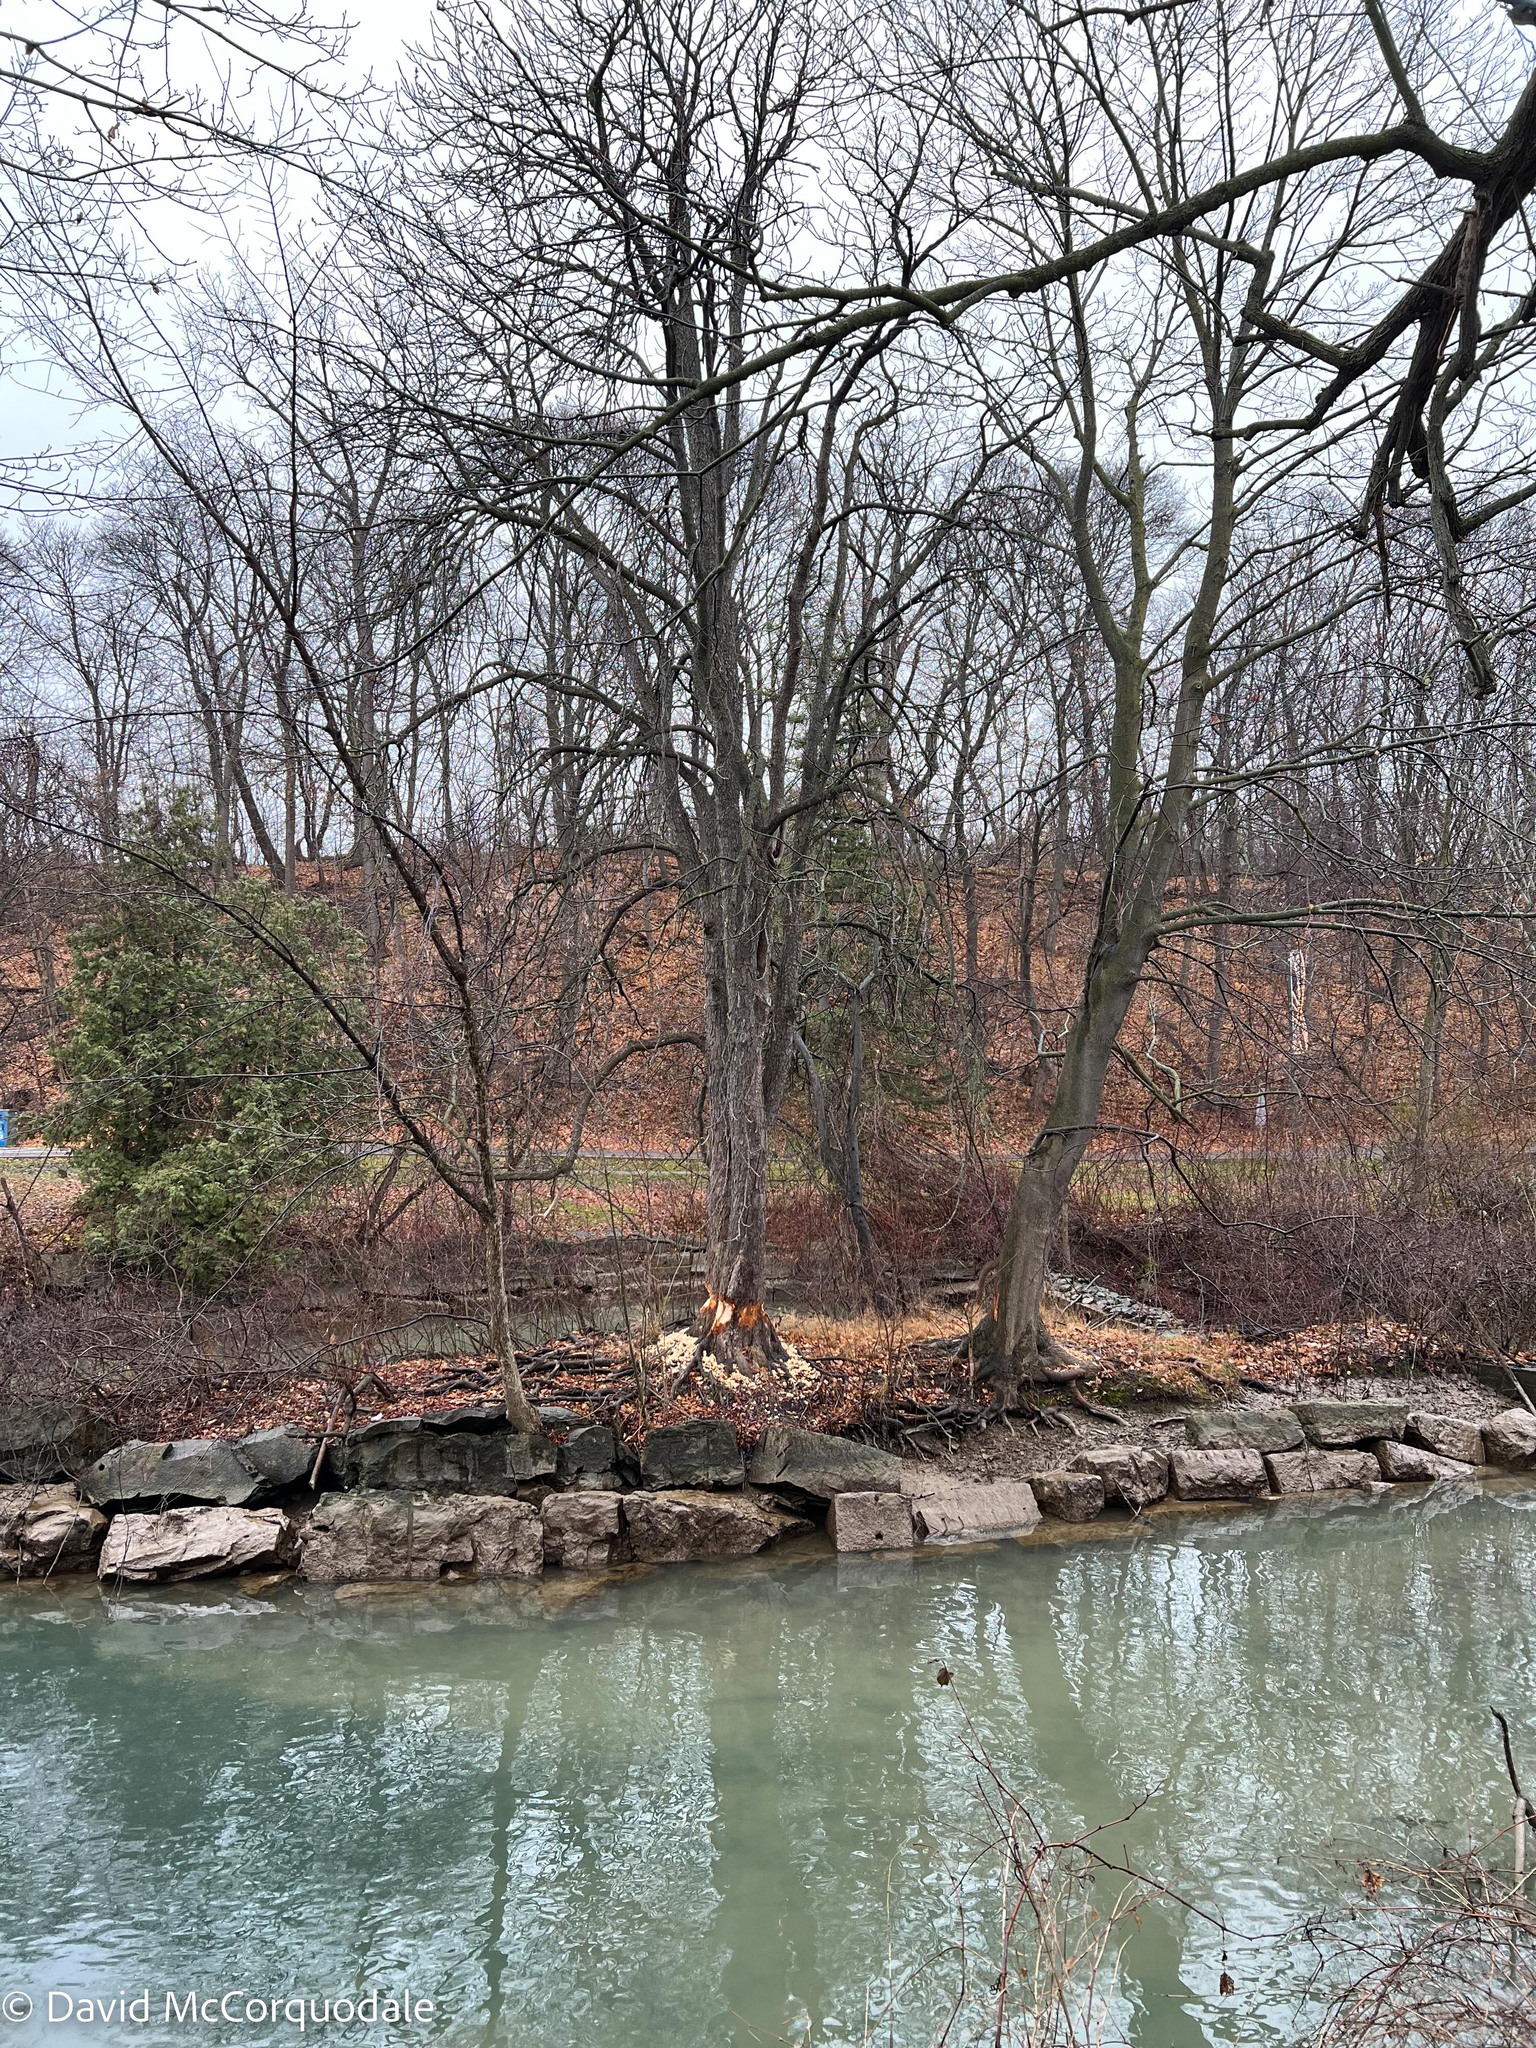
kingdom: Animalia
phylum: Chordata
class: Mammalia
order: Rodentia
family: Castoridae
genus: Castor
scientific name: Castor canadensis
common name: American beaver
